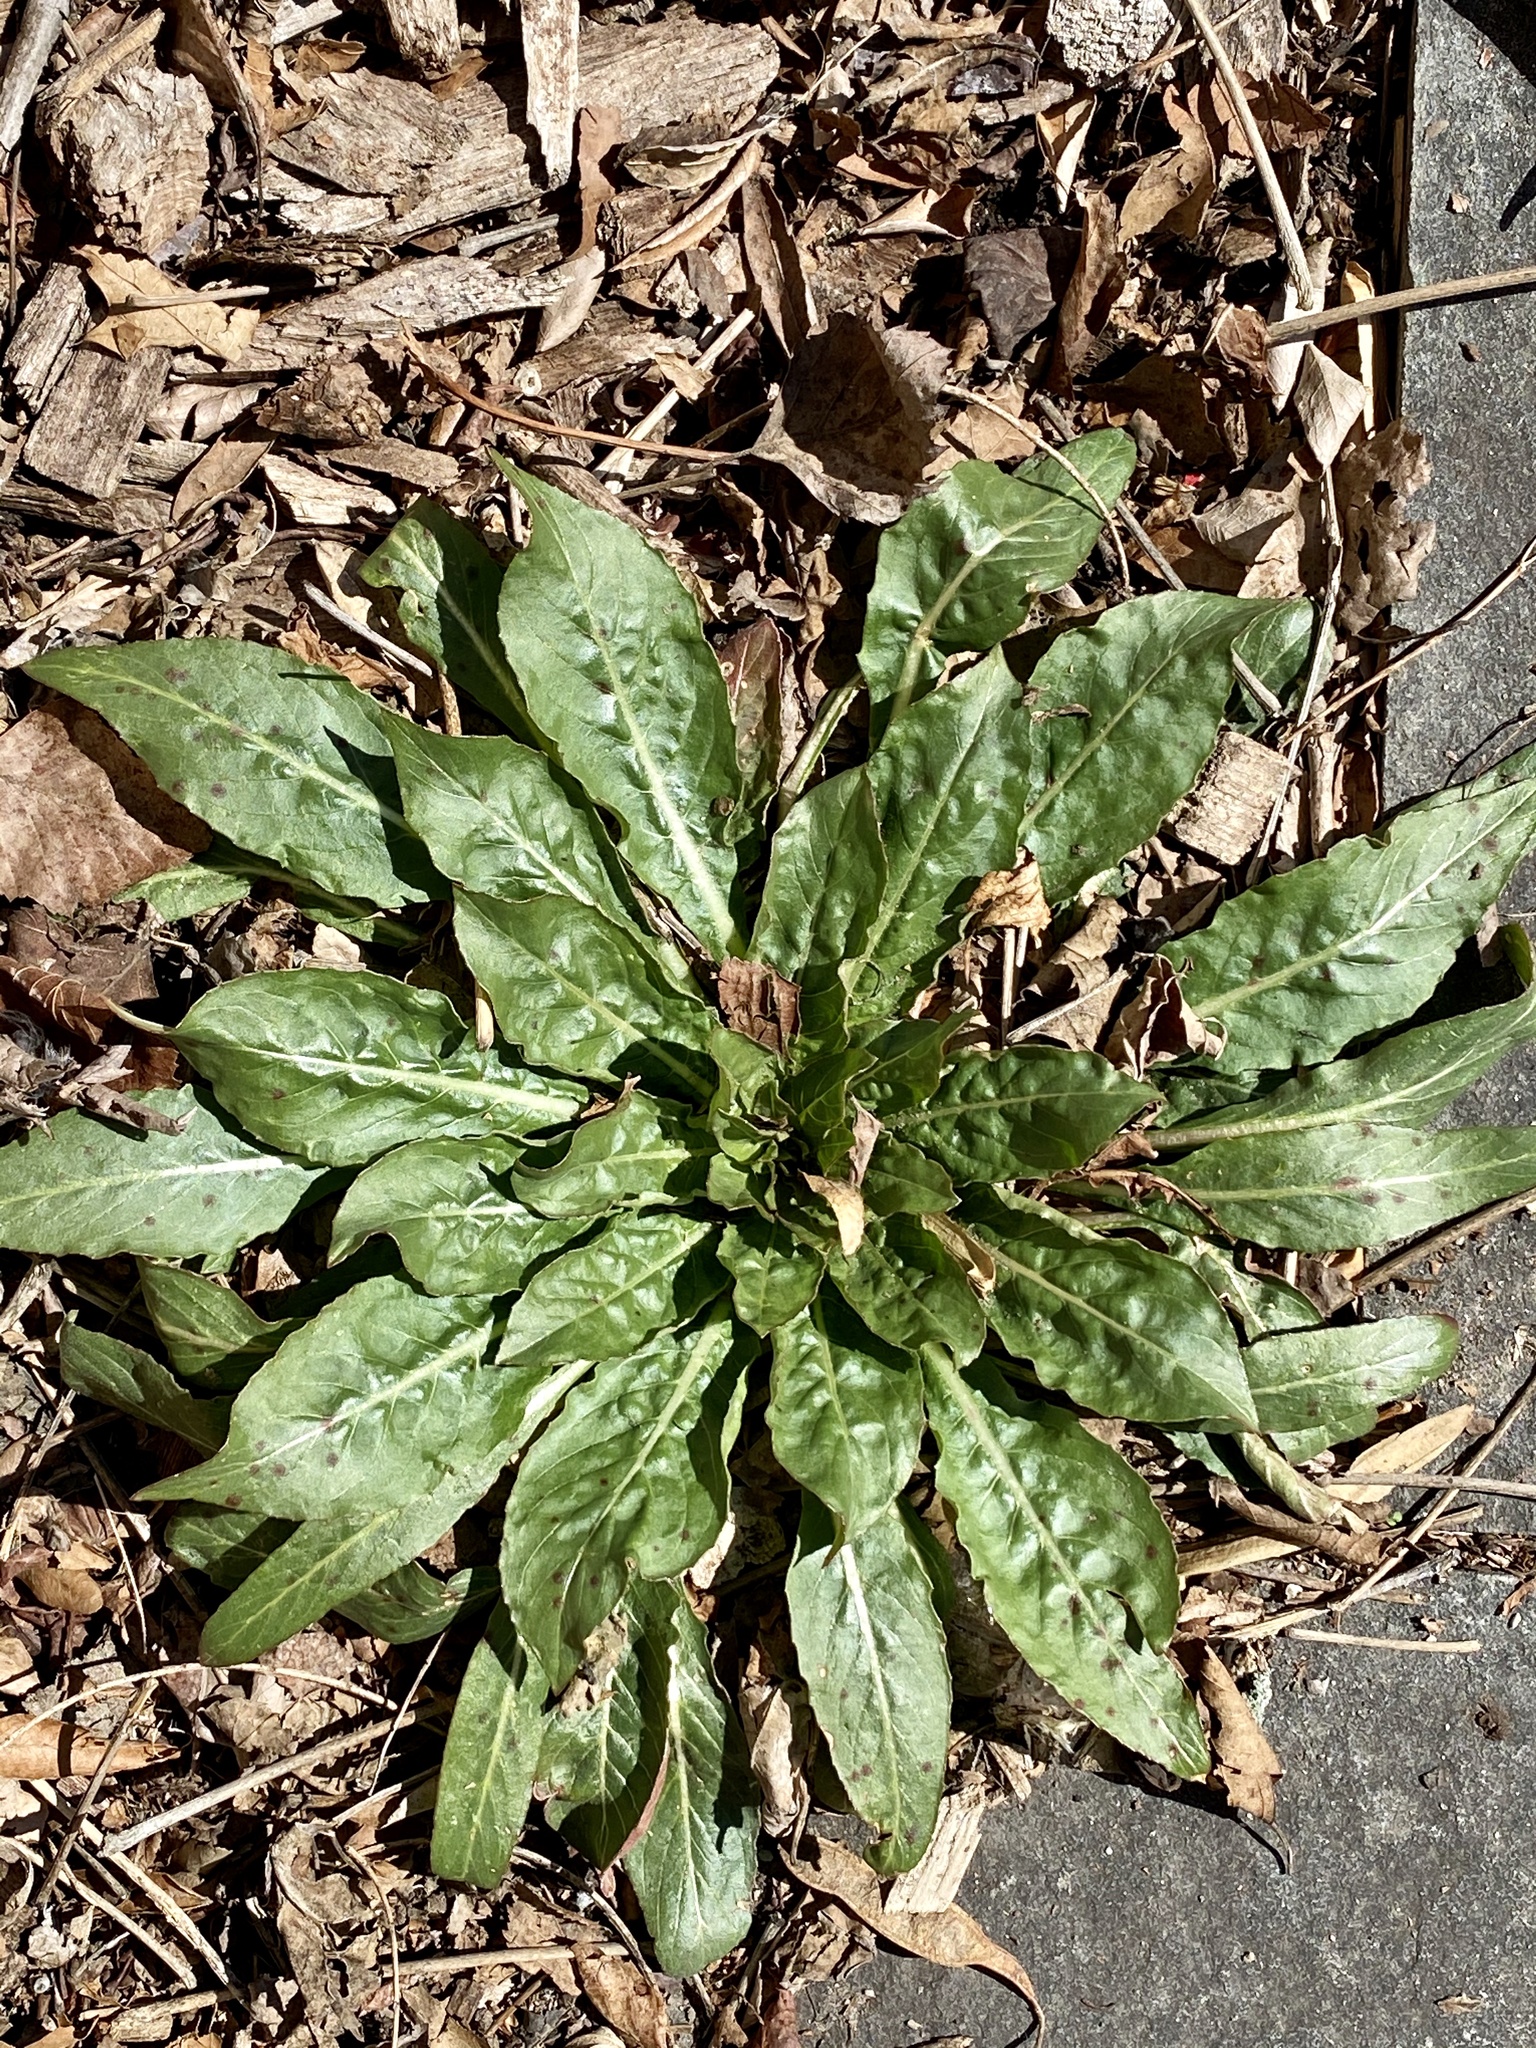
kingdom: Plantae
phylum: Tracheophyta
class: Magnoliopsida
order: Myrtales
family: Onagraceae
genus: Oenothera
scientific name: Oenothera biennis
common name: Common evening-primrose
